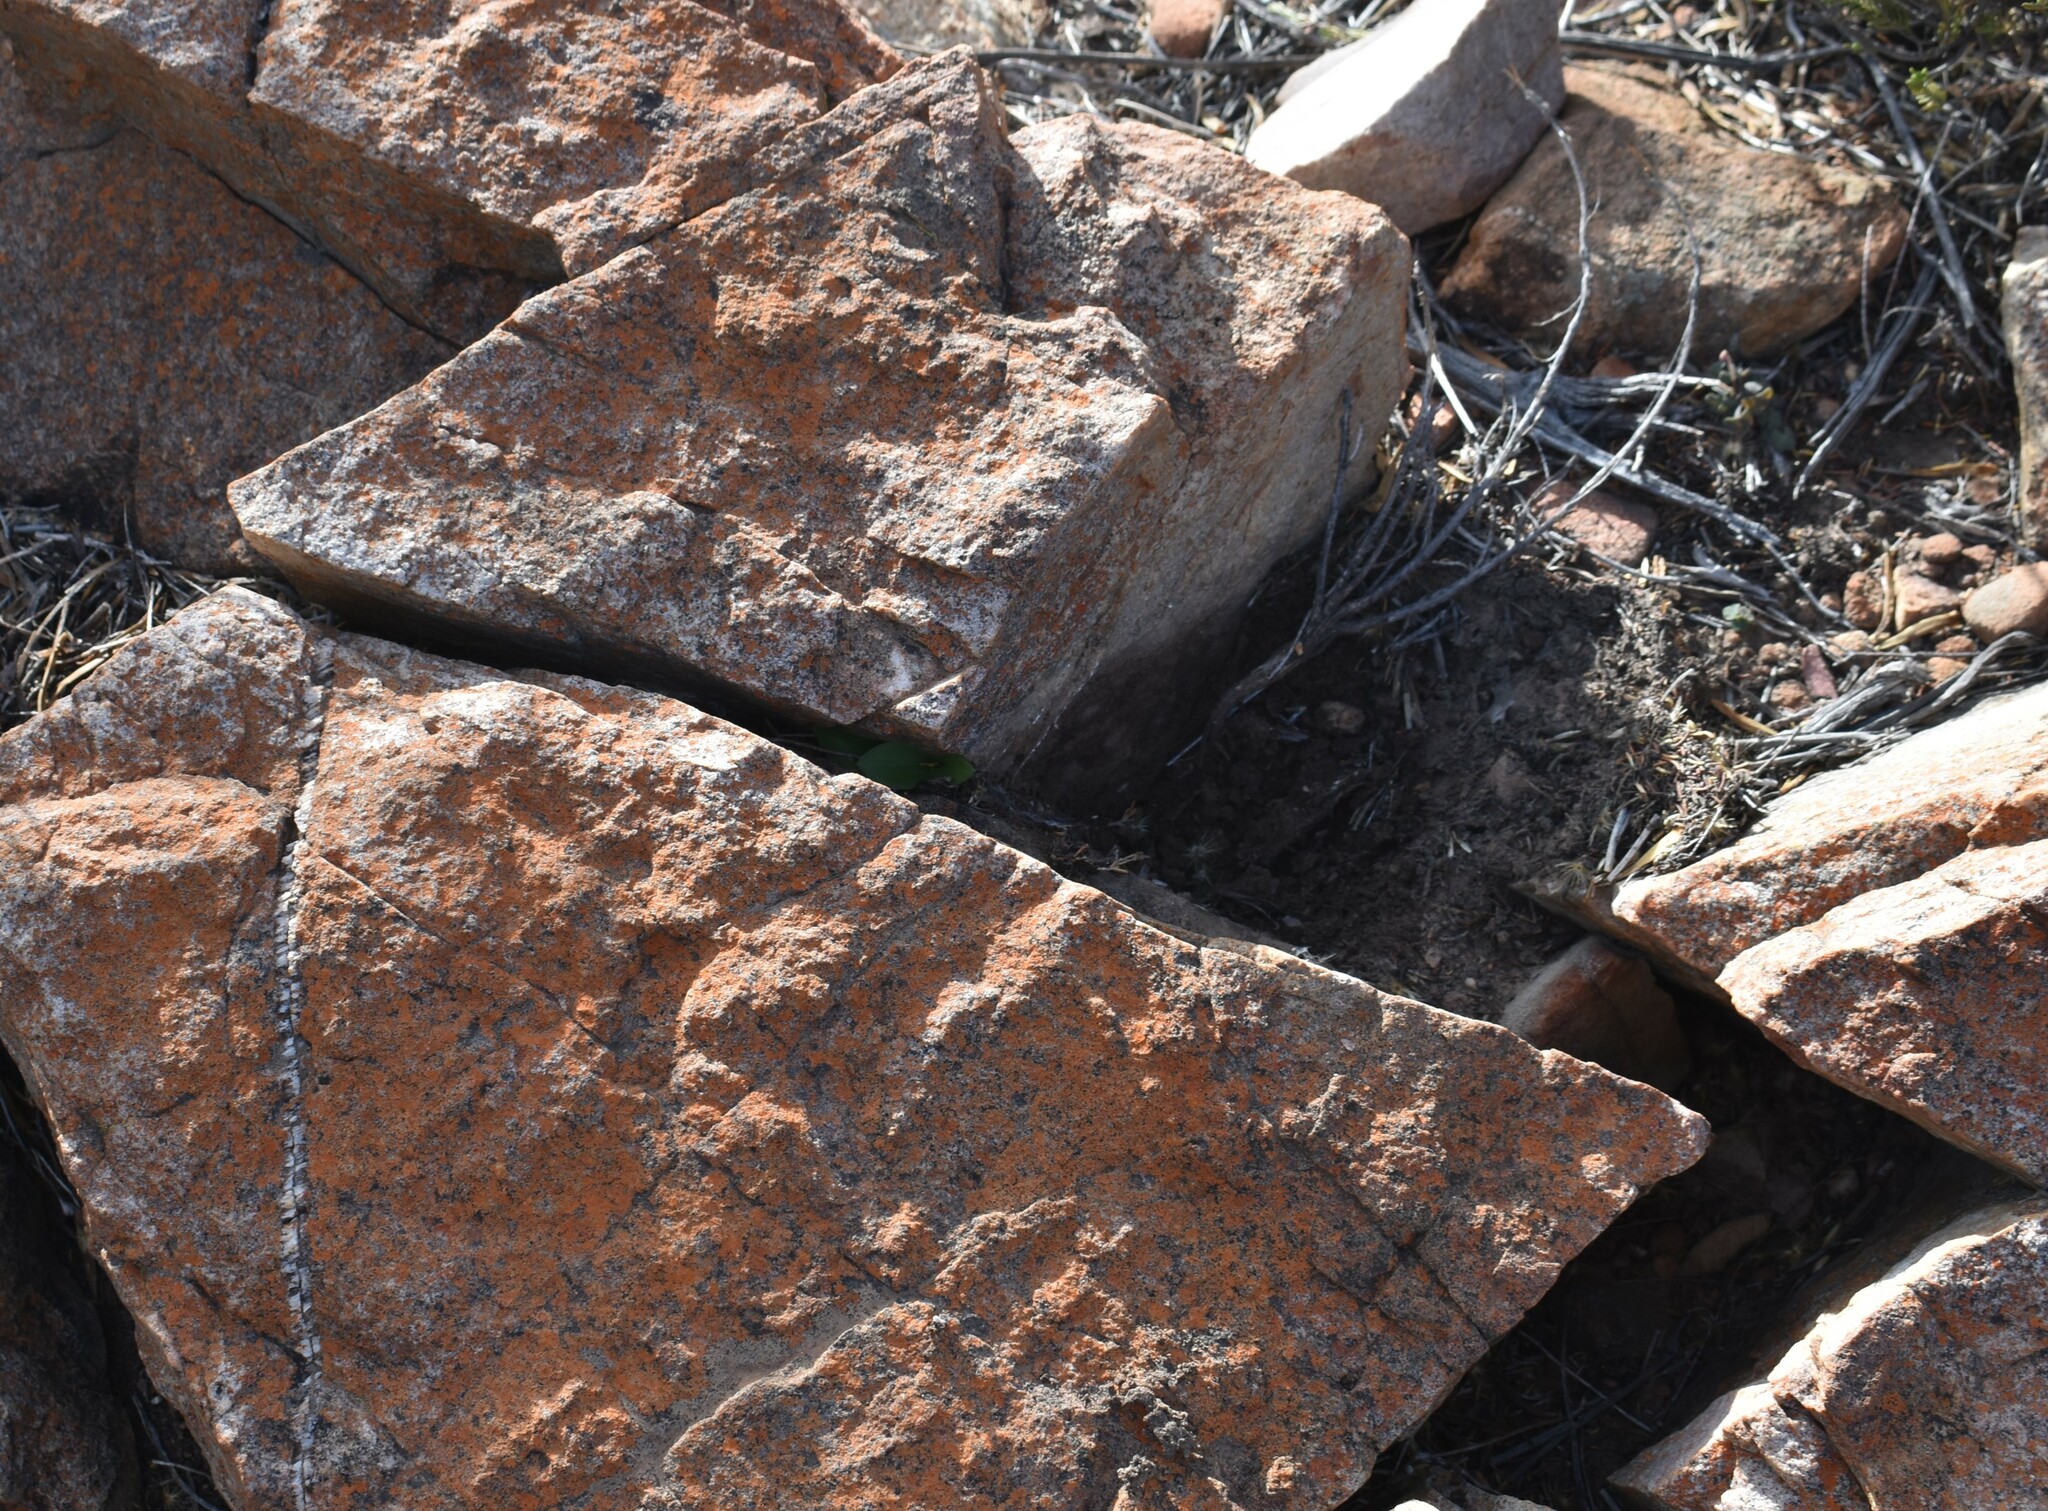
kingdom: Plantae
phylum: Tracheophyta
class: Liliopsida
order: Asparagales
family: Orchidaceae
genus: Holothrix
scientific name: Holothrix secunda
